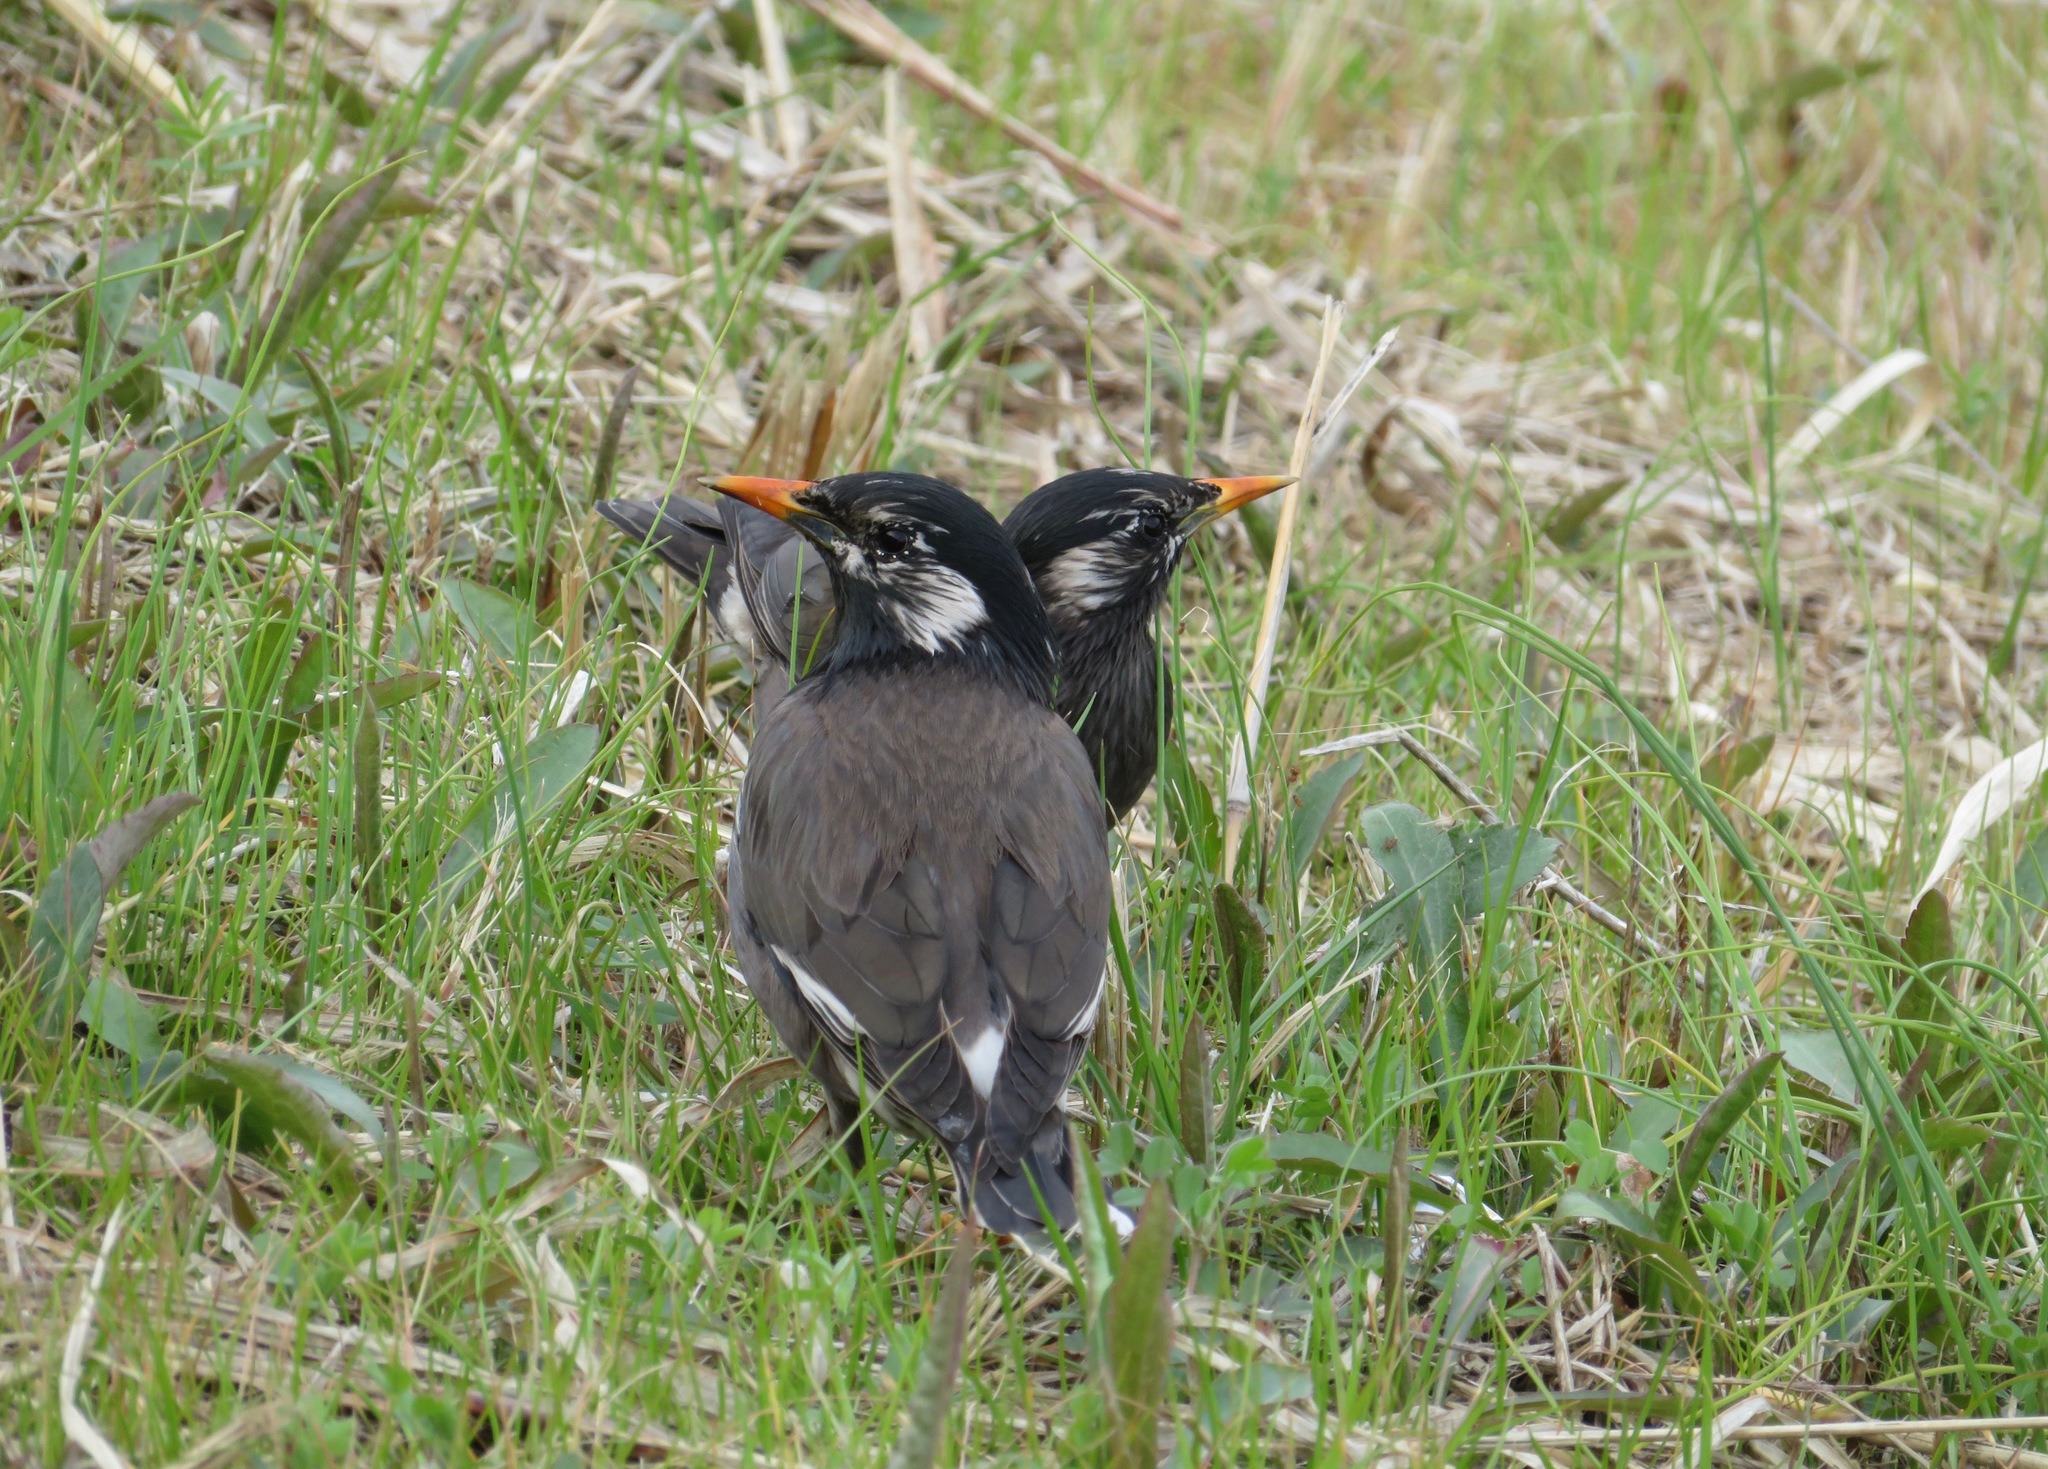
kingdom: Animalia
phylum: Chordata
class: Aves
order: Passeriformes
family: Sturnidae
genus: Spodiopsar
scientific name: Spodiopsar cineraceus
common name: White-cheeked starling
